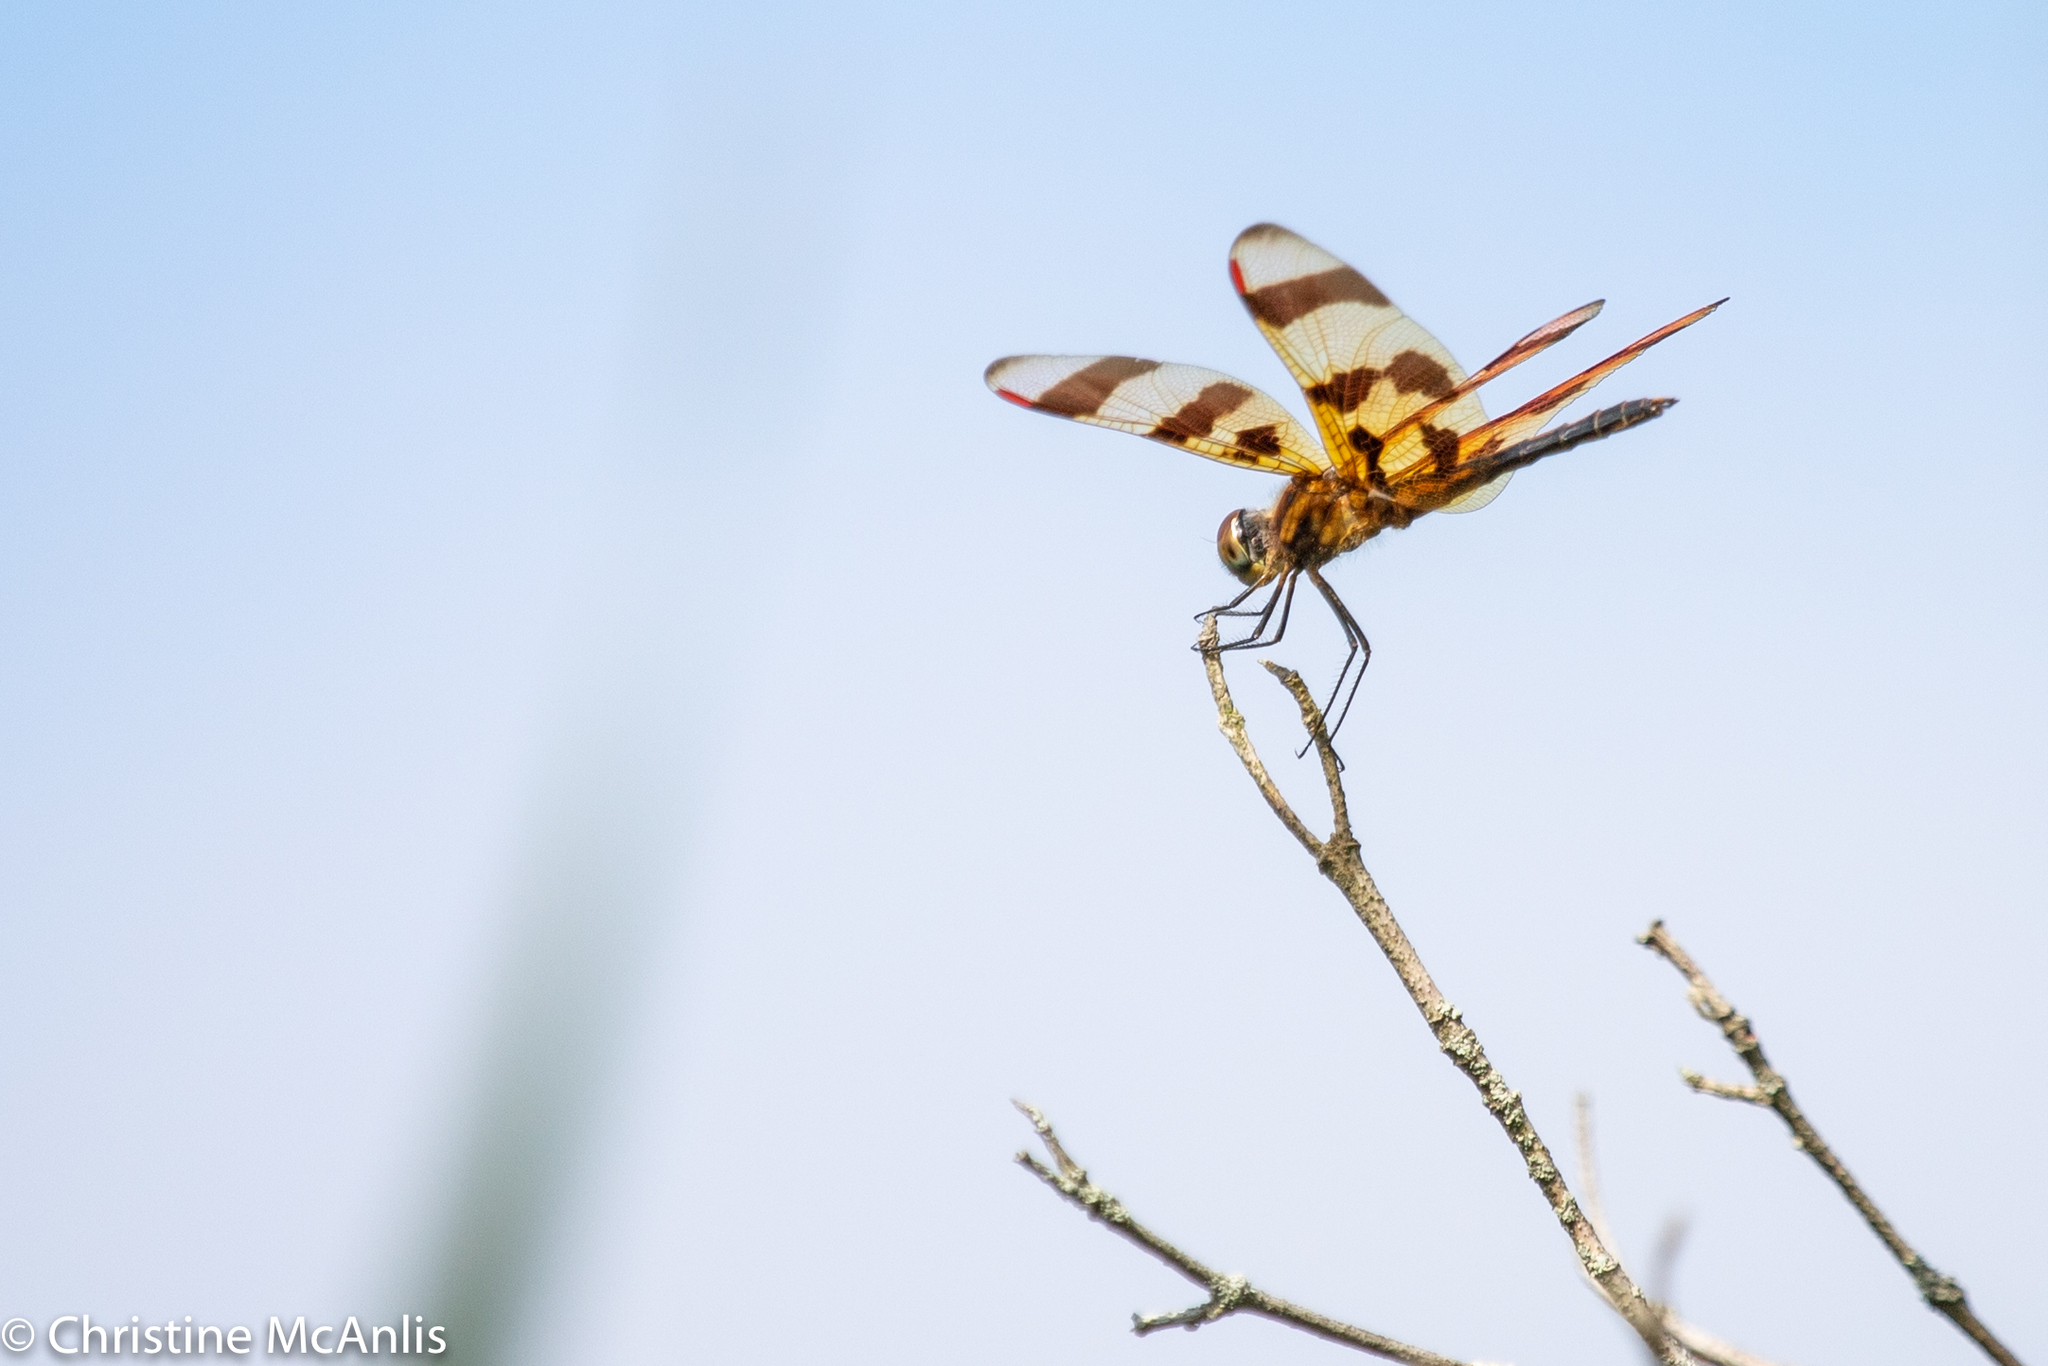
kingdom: Animalia
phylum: Arthropoda
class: Insecta
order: Odonata
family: Libellulidae
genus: Celithemis
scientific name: Celithemis eponina
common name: Halloween pennant
